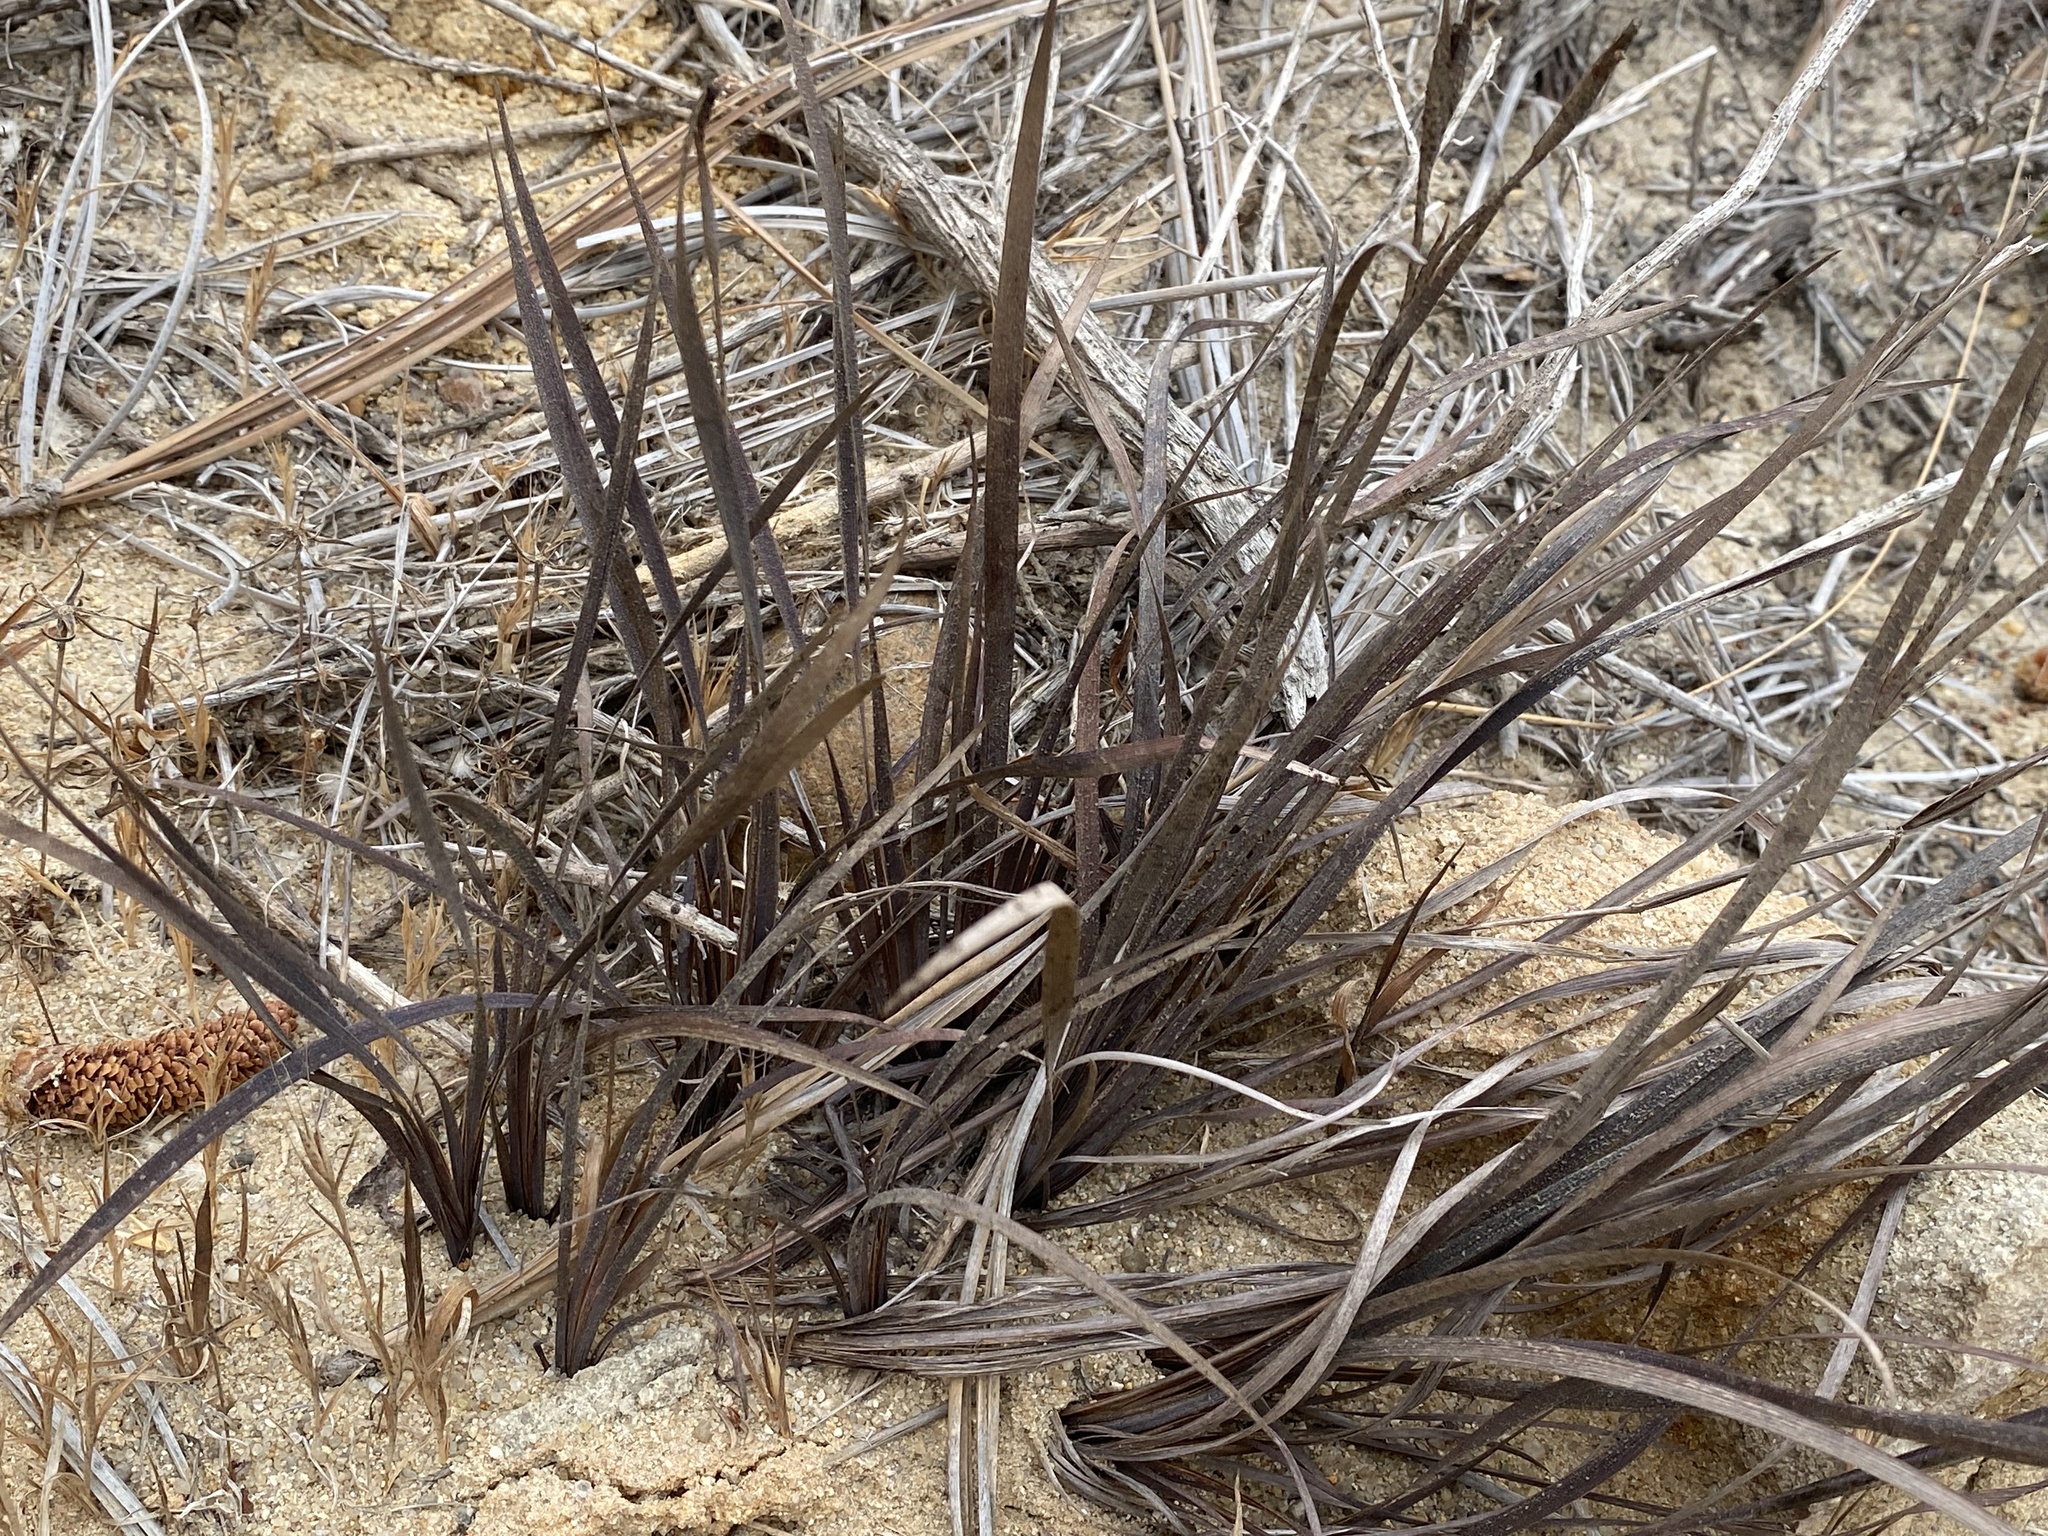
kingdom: Plantae
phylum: Tracheophyta
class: Liliopsida
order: Asparagales
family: Iridaceae
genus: Sisyrinchium
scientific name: Sisyrinchium bellum
